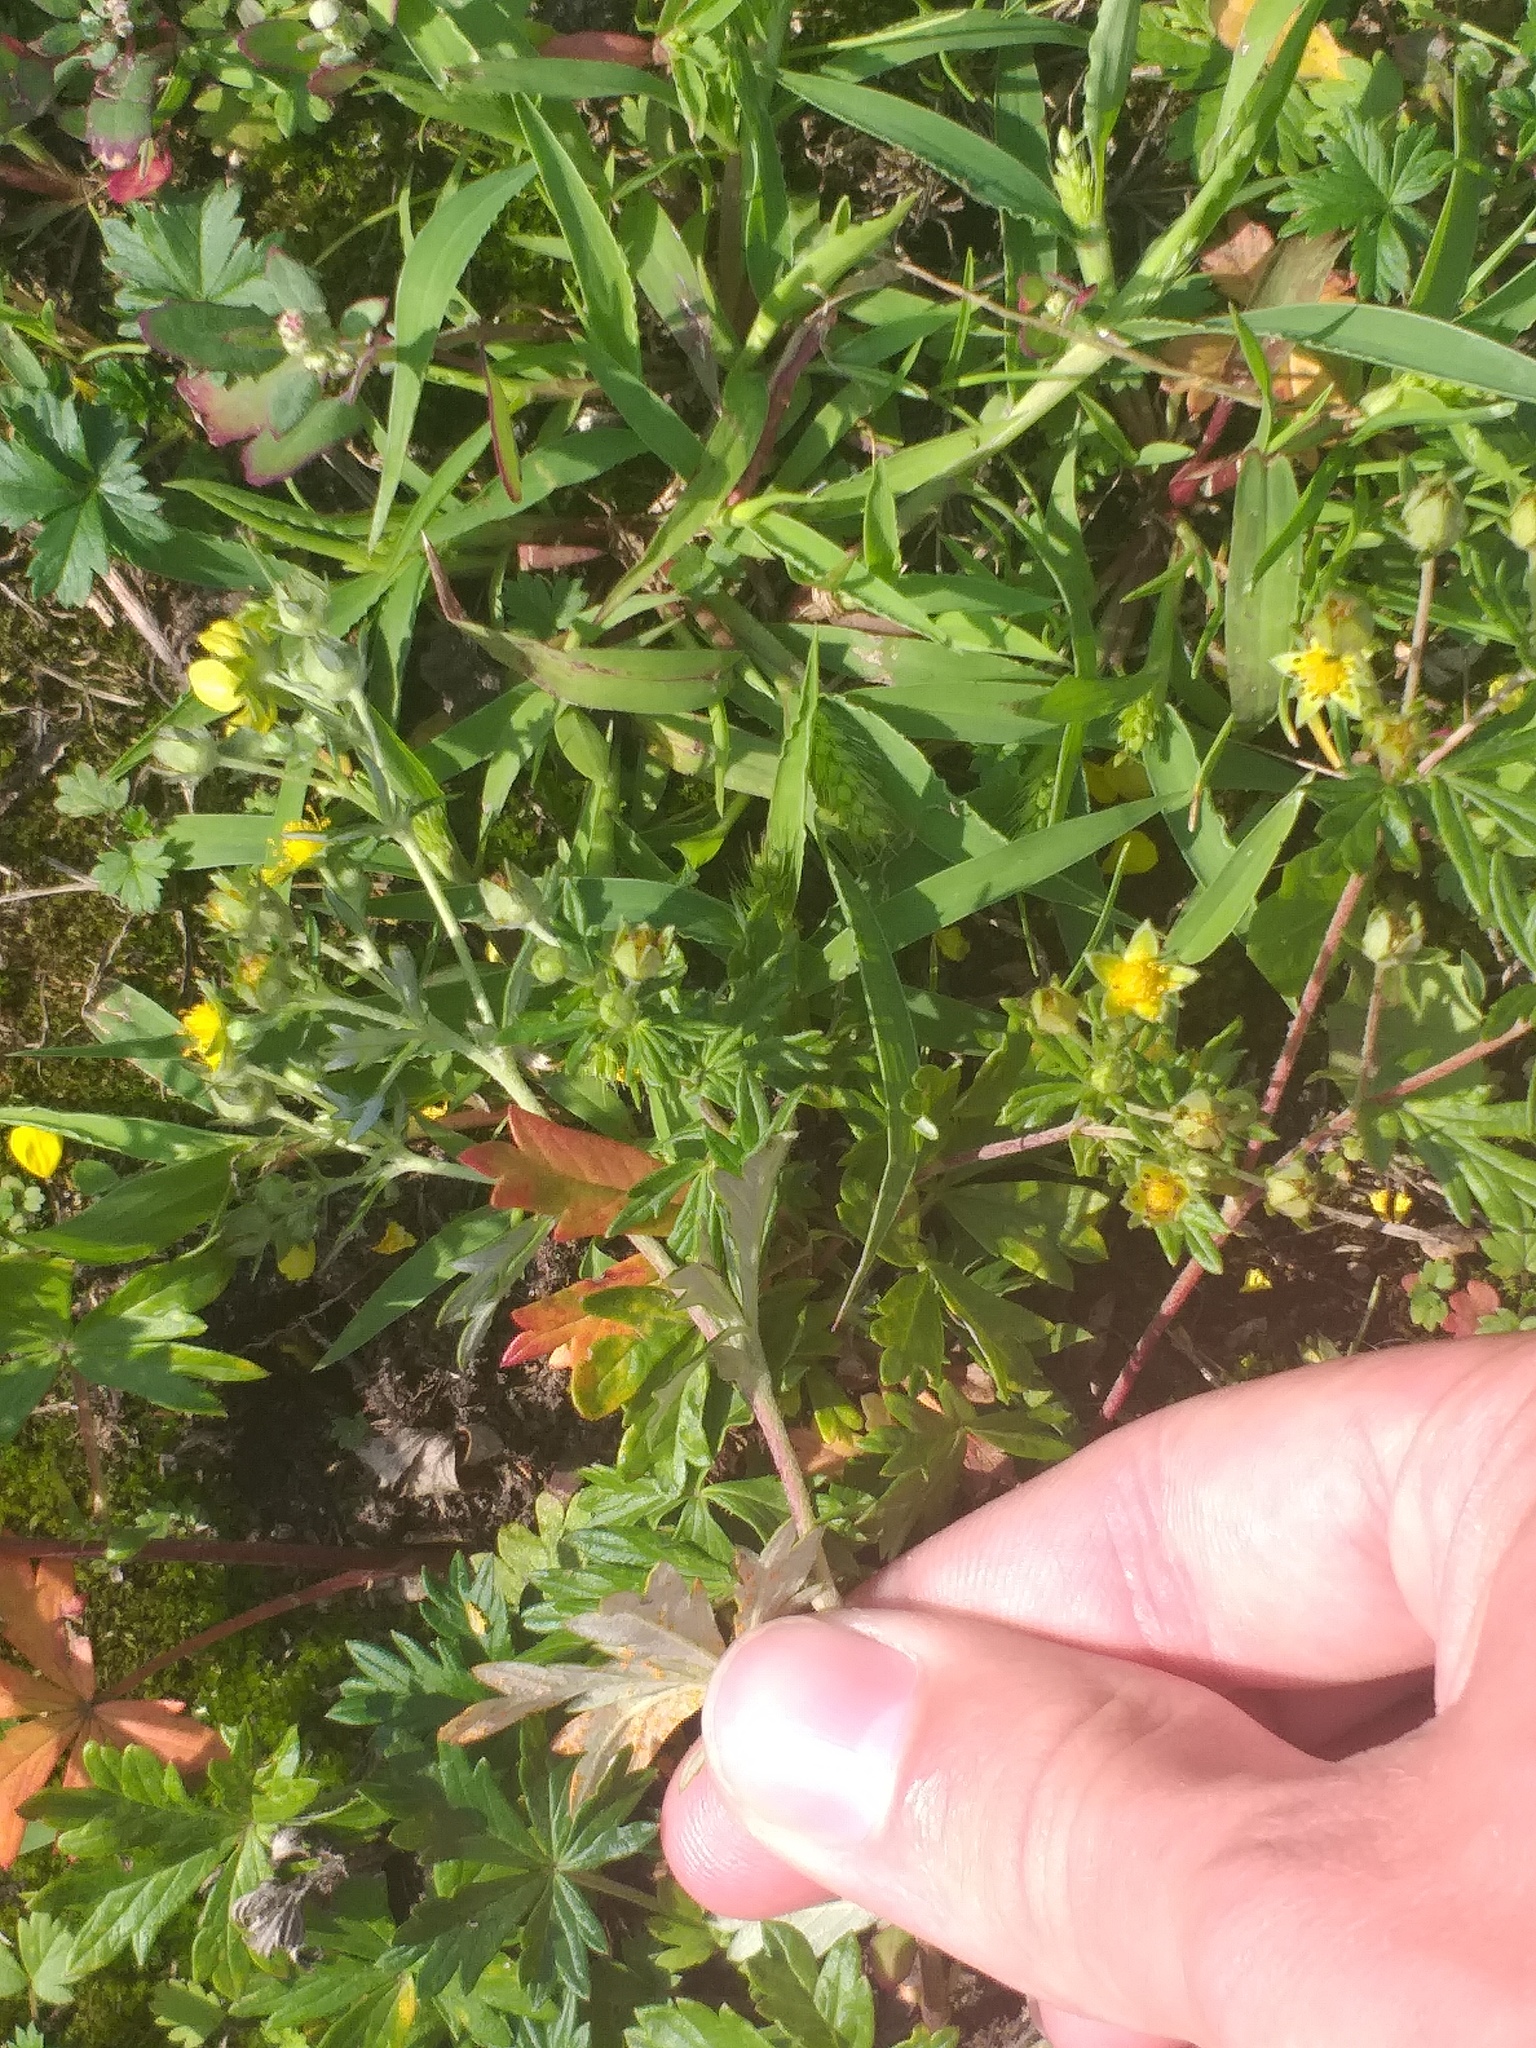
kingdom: Plantae
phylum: Tracheophyta
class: Magnoliopsida
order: Rosales
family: Rosaceae
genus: Potentilla
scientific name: Potentilla argentea
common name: Hoary cinquefoil
